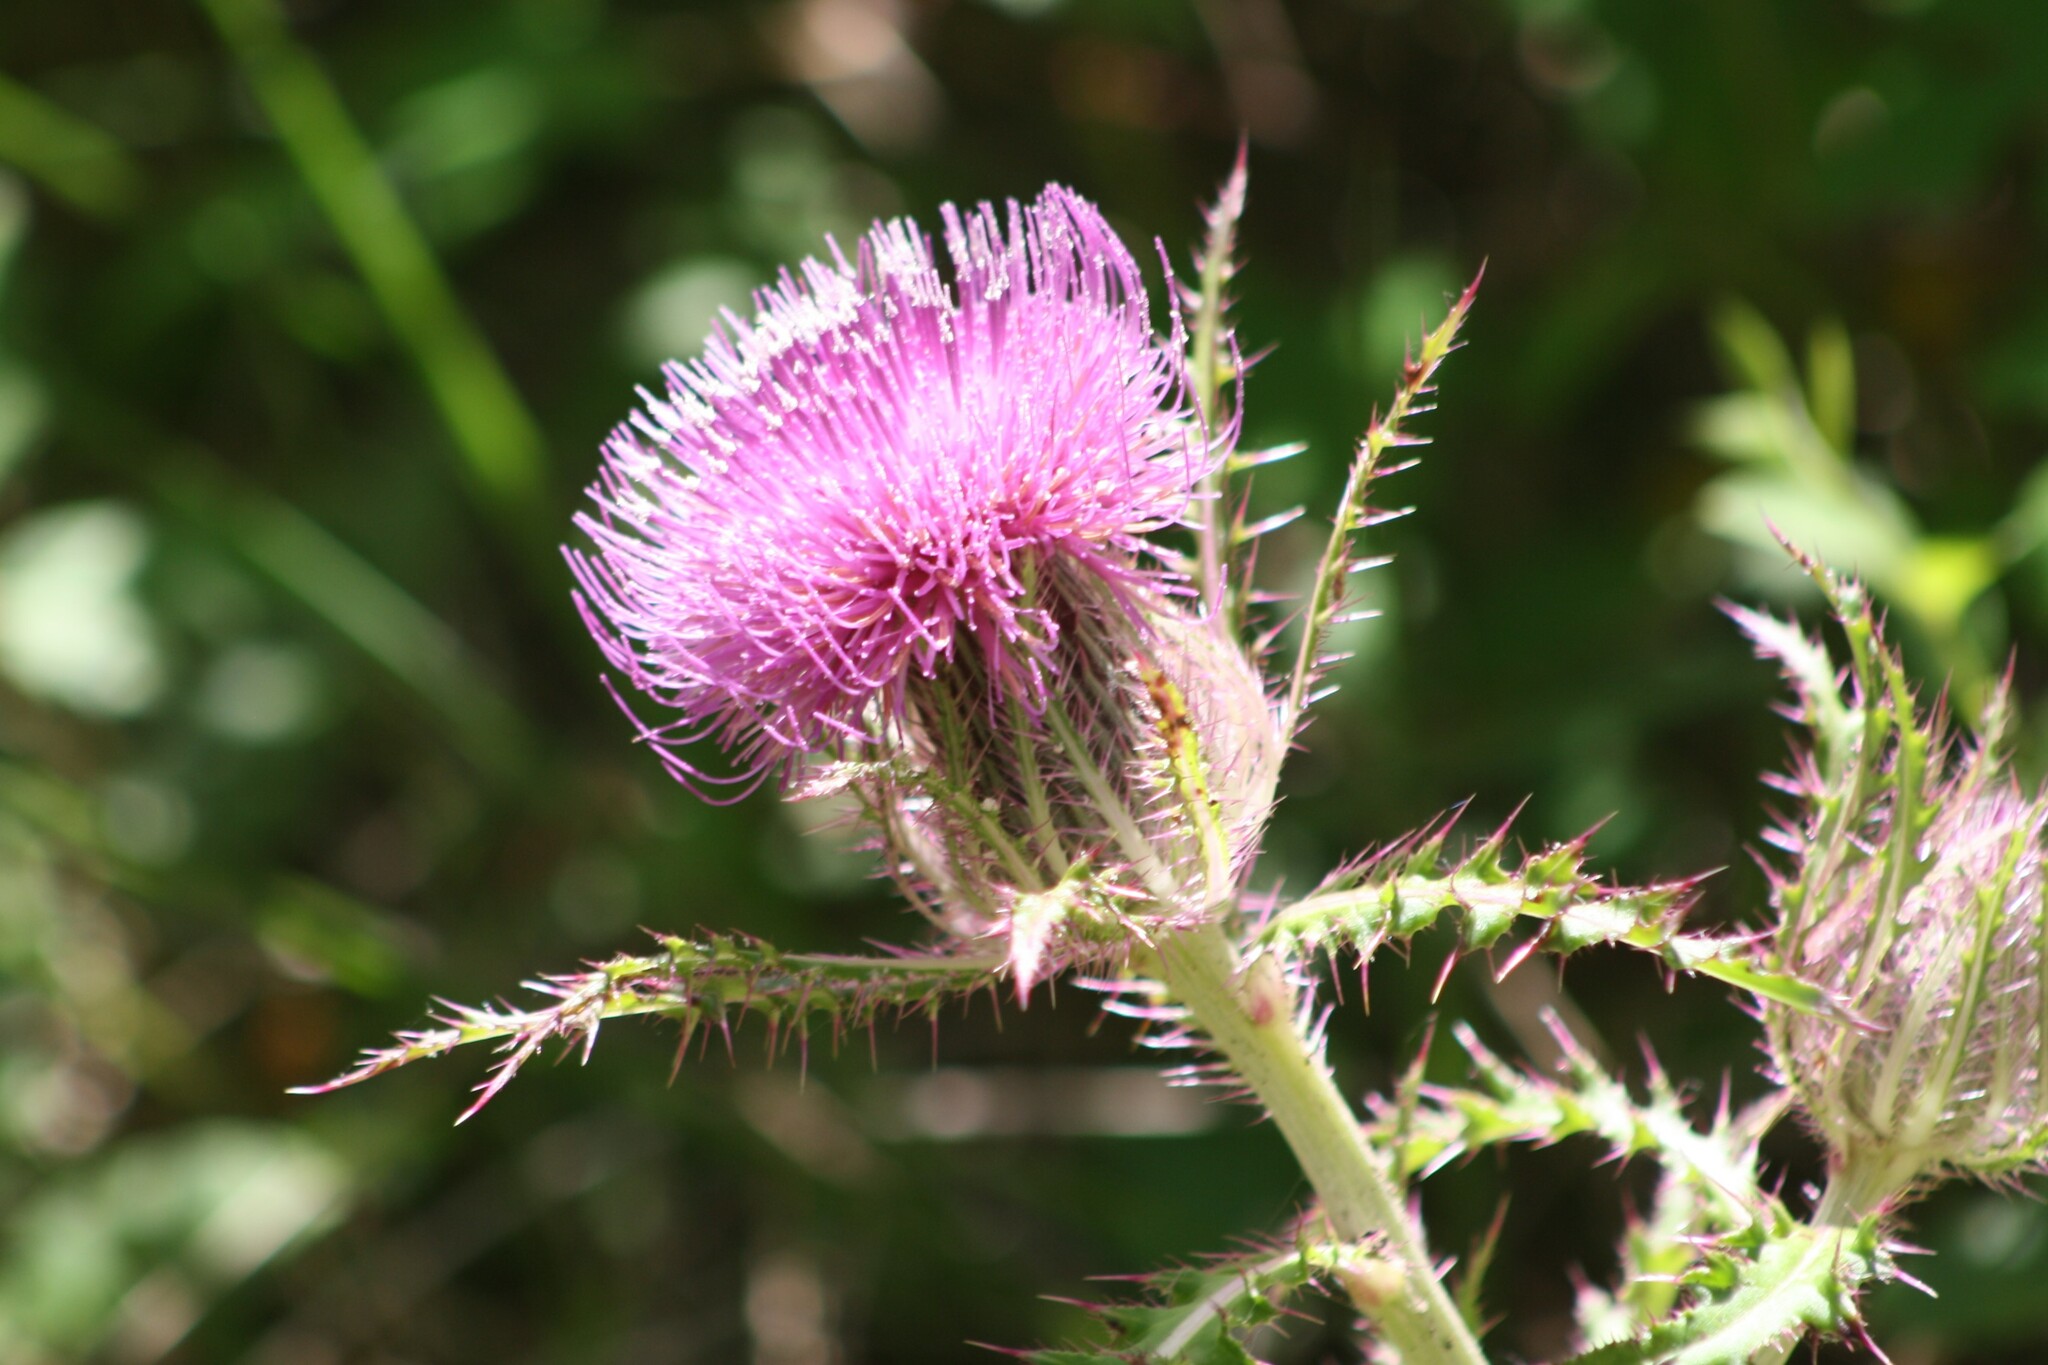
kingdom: Plantae
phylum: Tracheophyta
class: Magnoliopsida
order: Asterales
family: Asteraceae
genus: Cirsium
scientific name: Cirsium horridulum
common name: Bristly thistle
